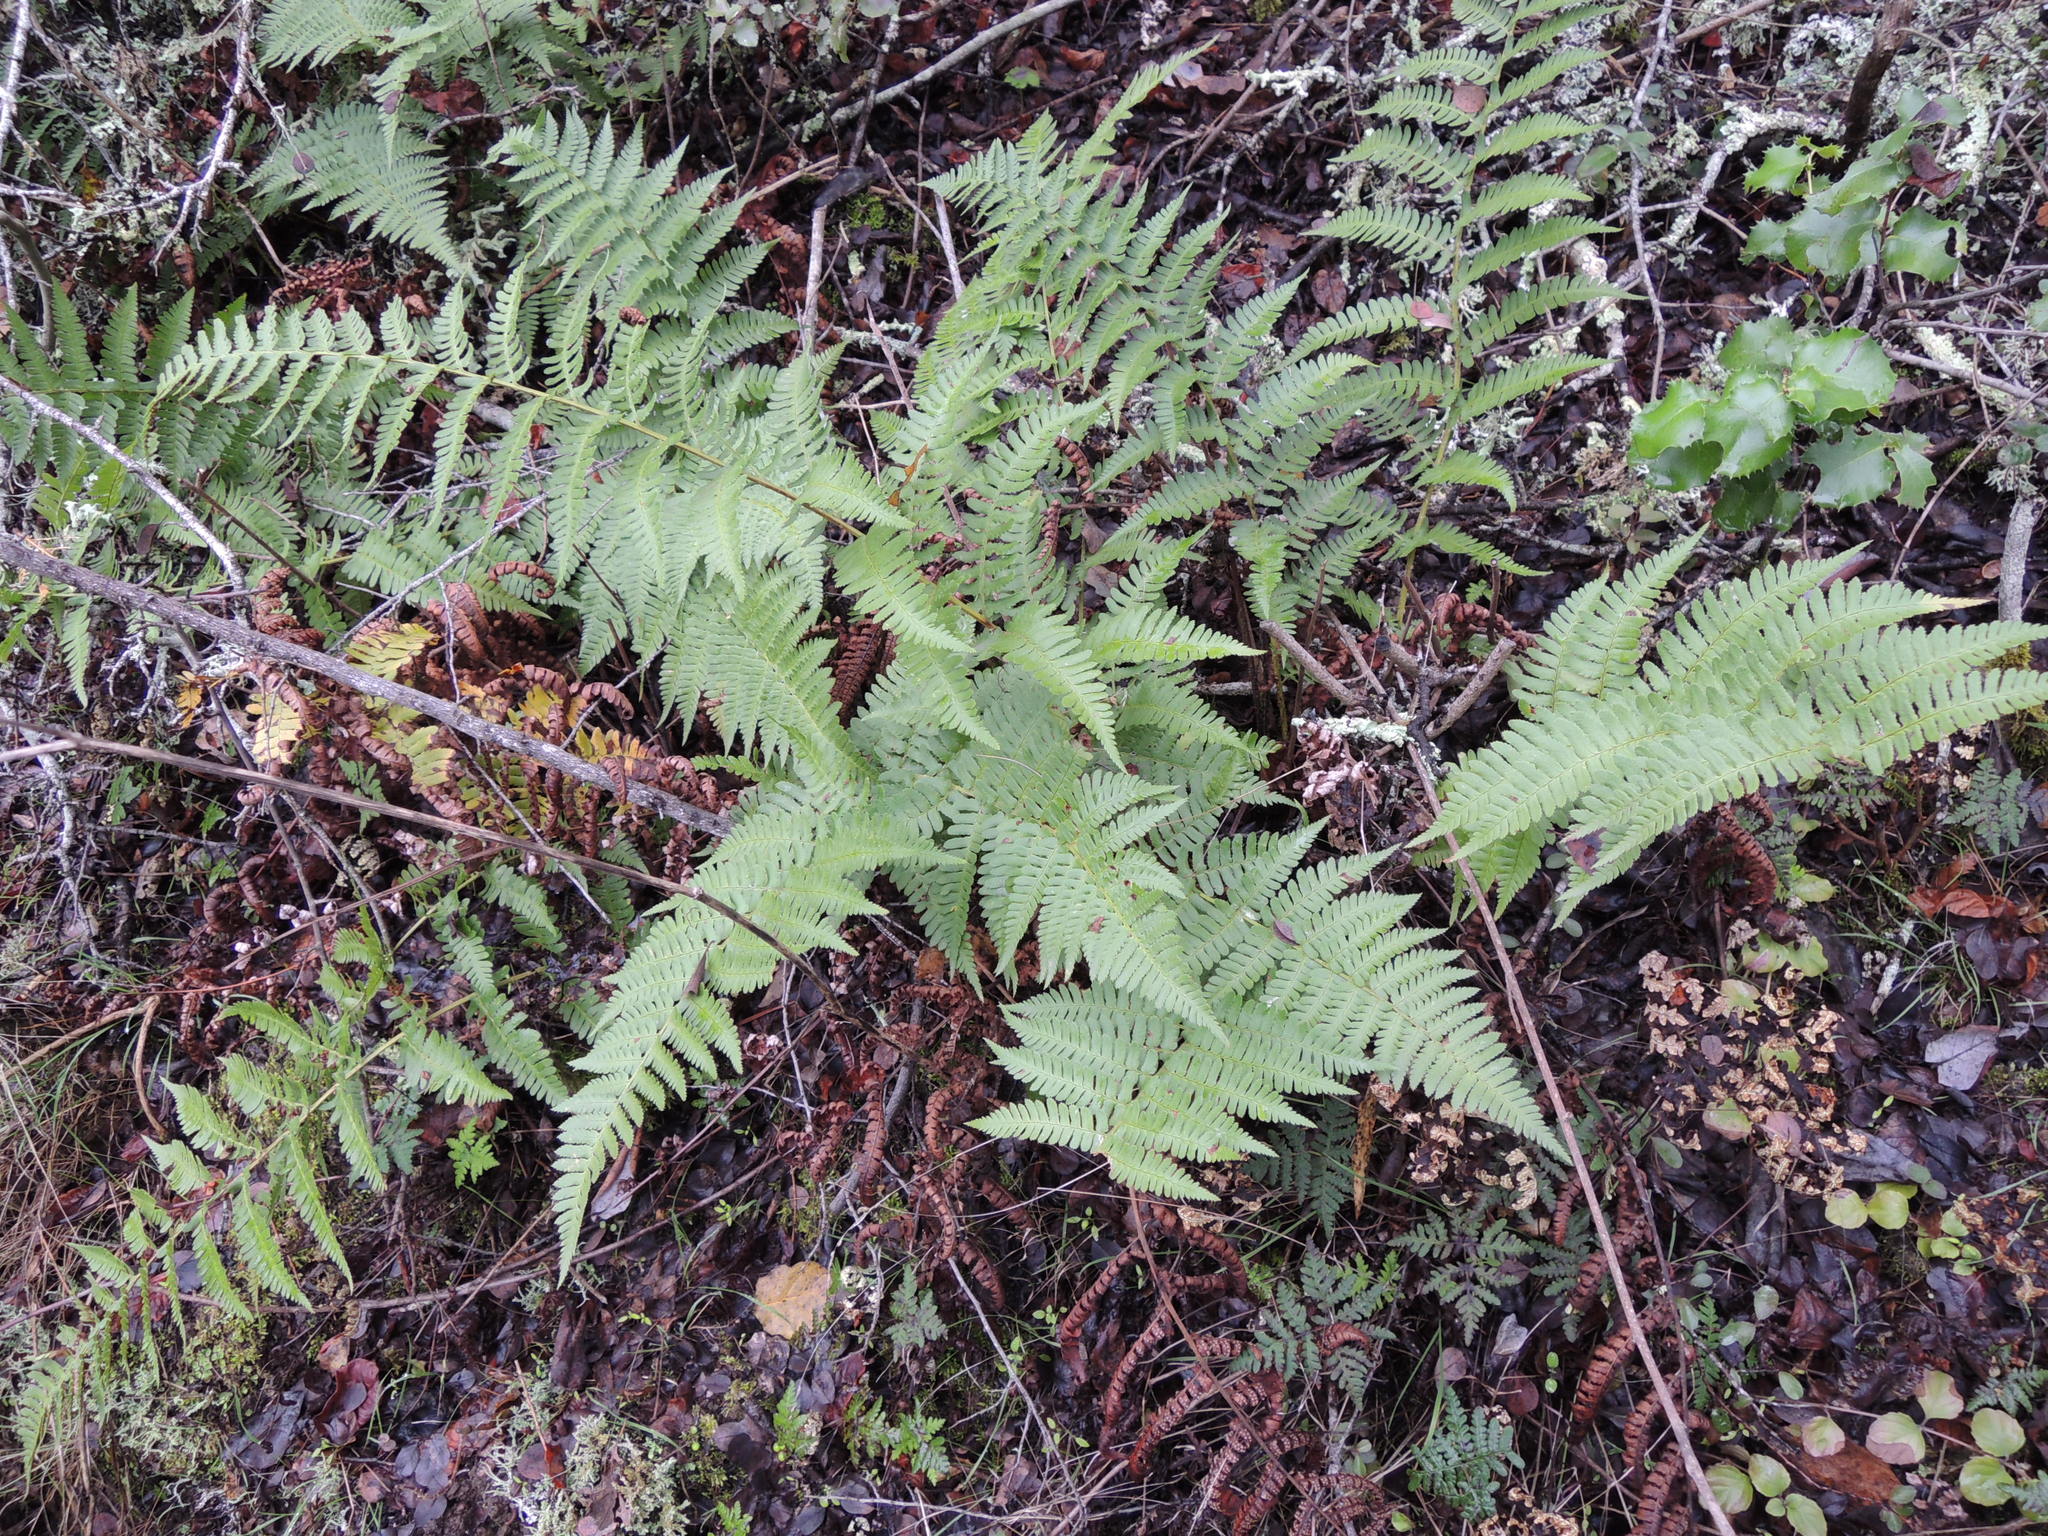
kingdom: Plantae
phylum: Tracheophyta
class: Polypodiopsida
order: Polypodiales
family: Dryopteridaceae
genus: Dryopteris
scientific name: Dryopteris arguta
